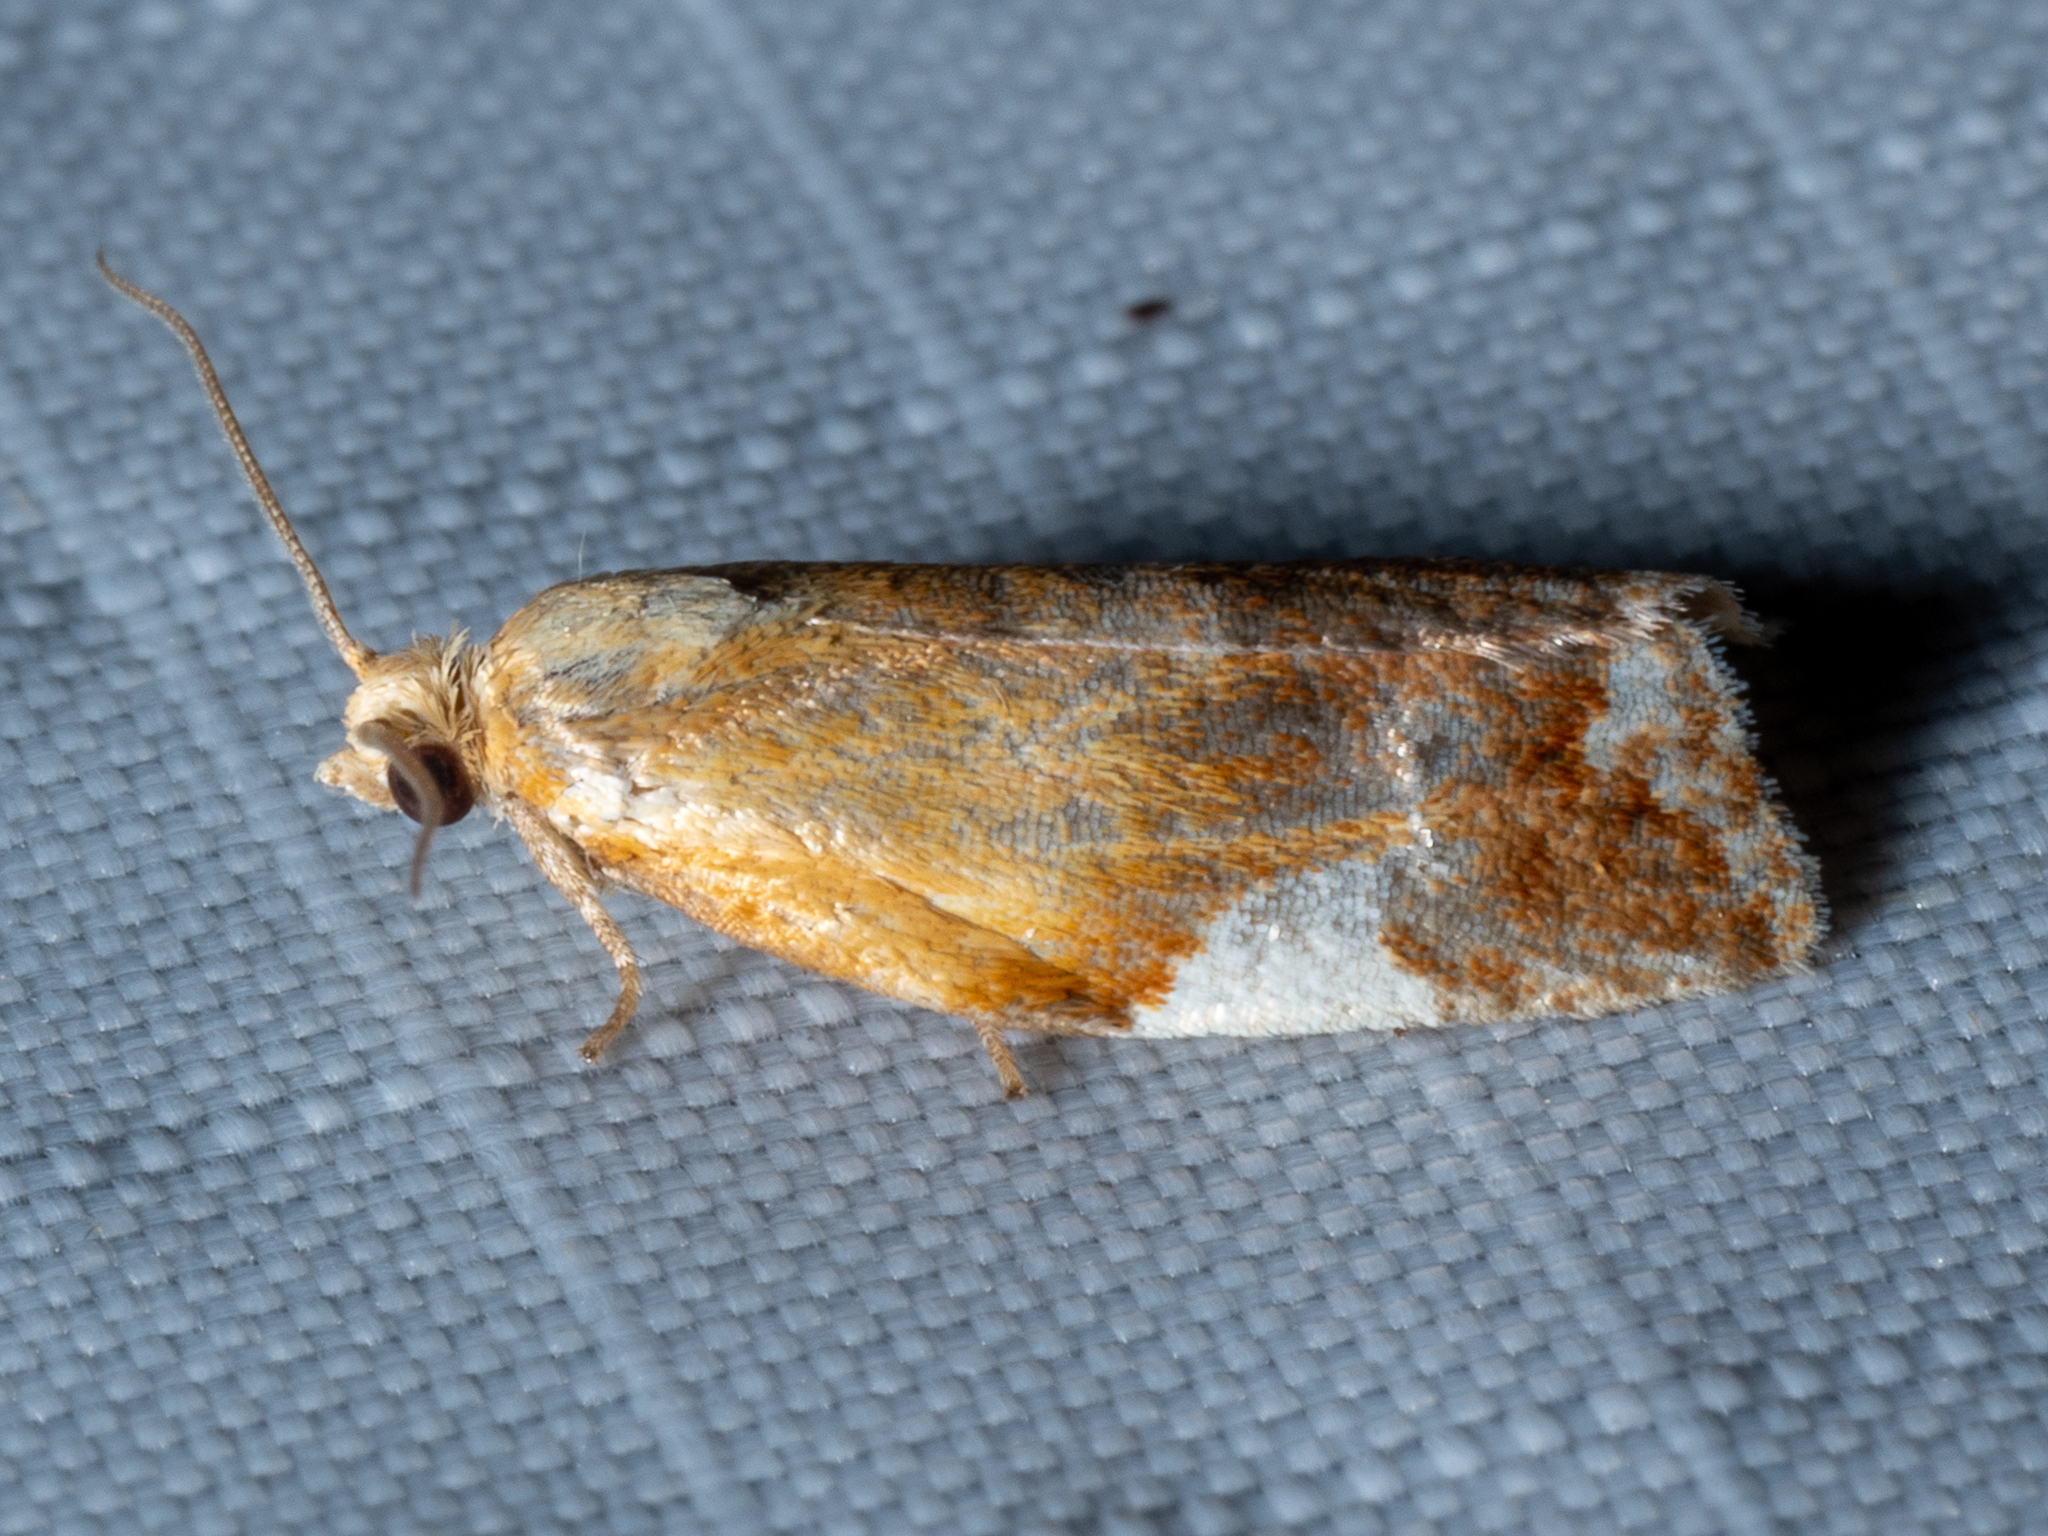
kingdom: Animalia
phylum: Arthropoda
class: Insecta
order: Lepidoptera
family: Tortricidae
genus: Clepsis
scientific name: Clepsis persicana
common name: White triangle tortrix
